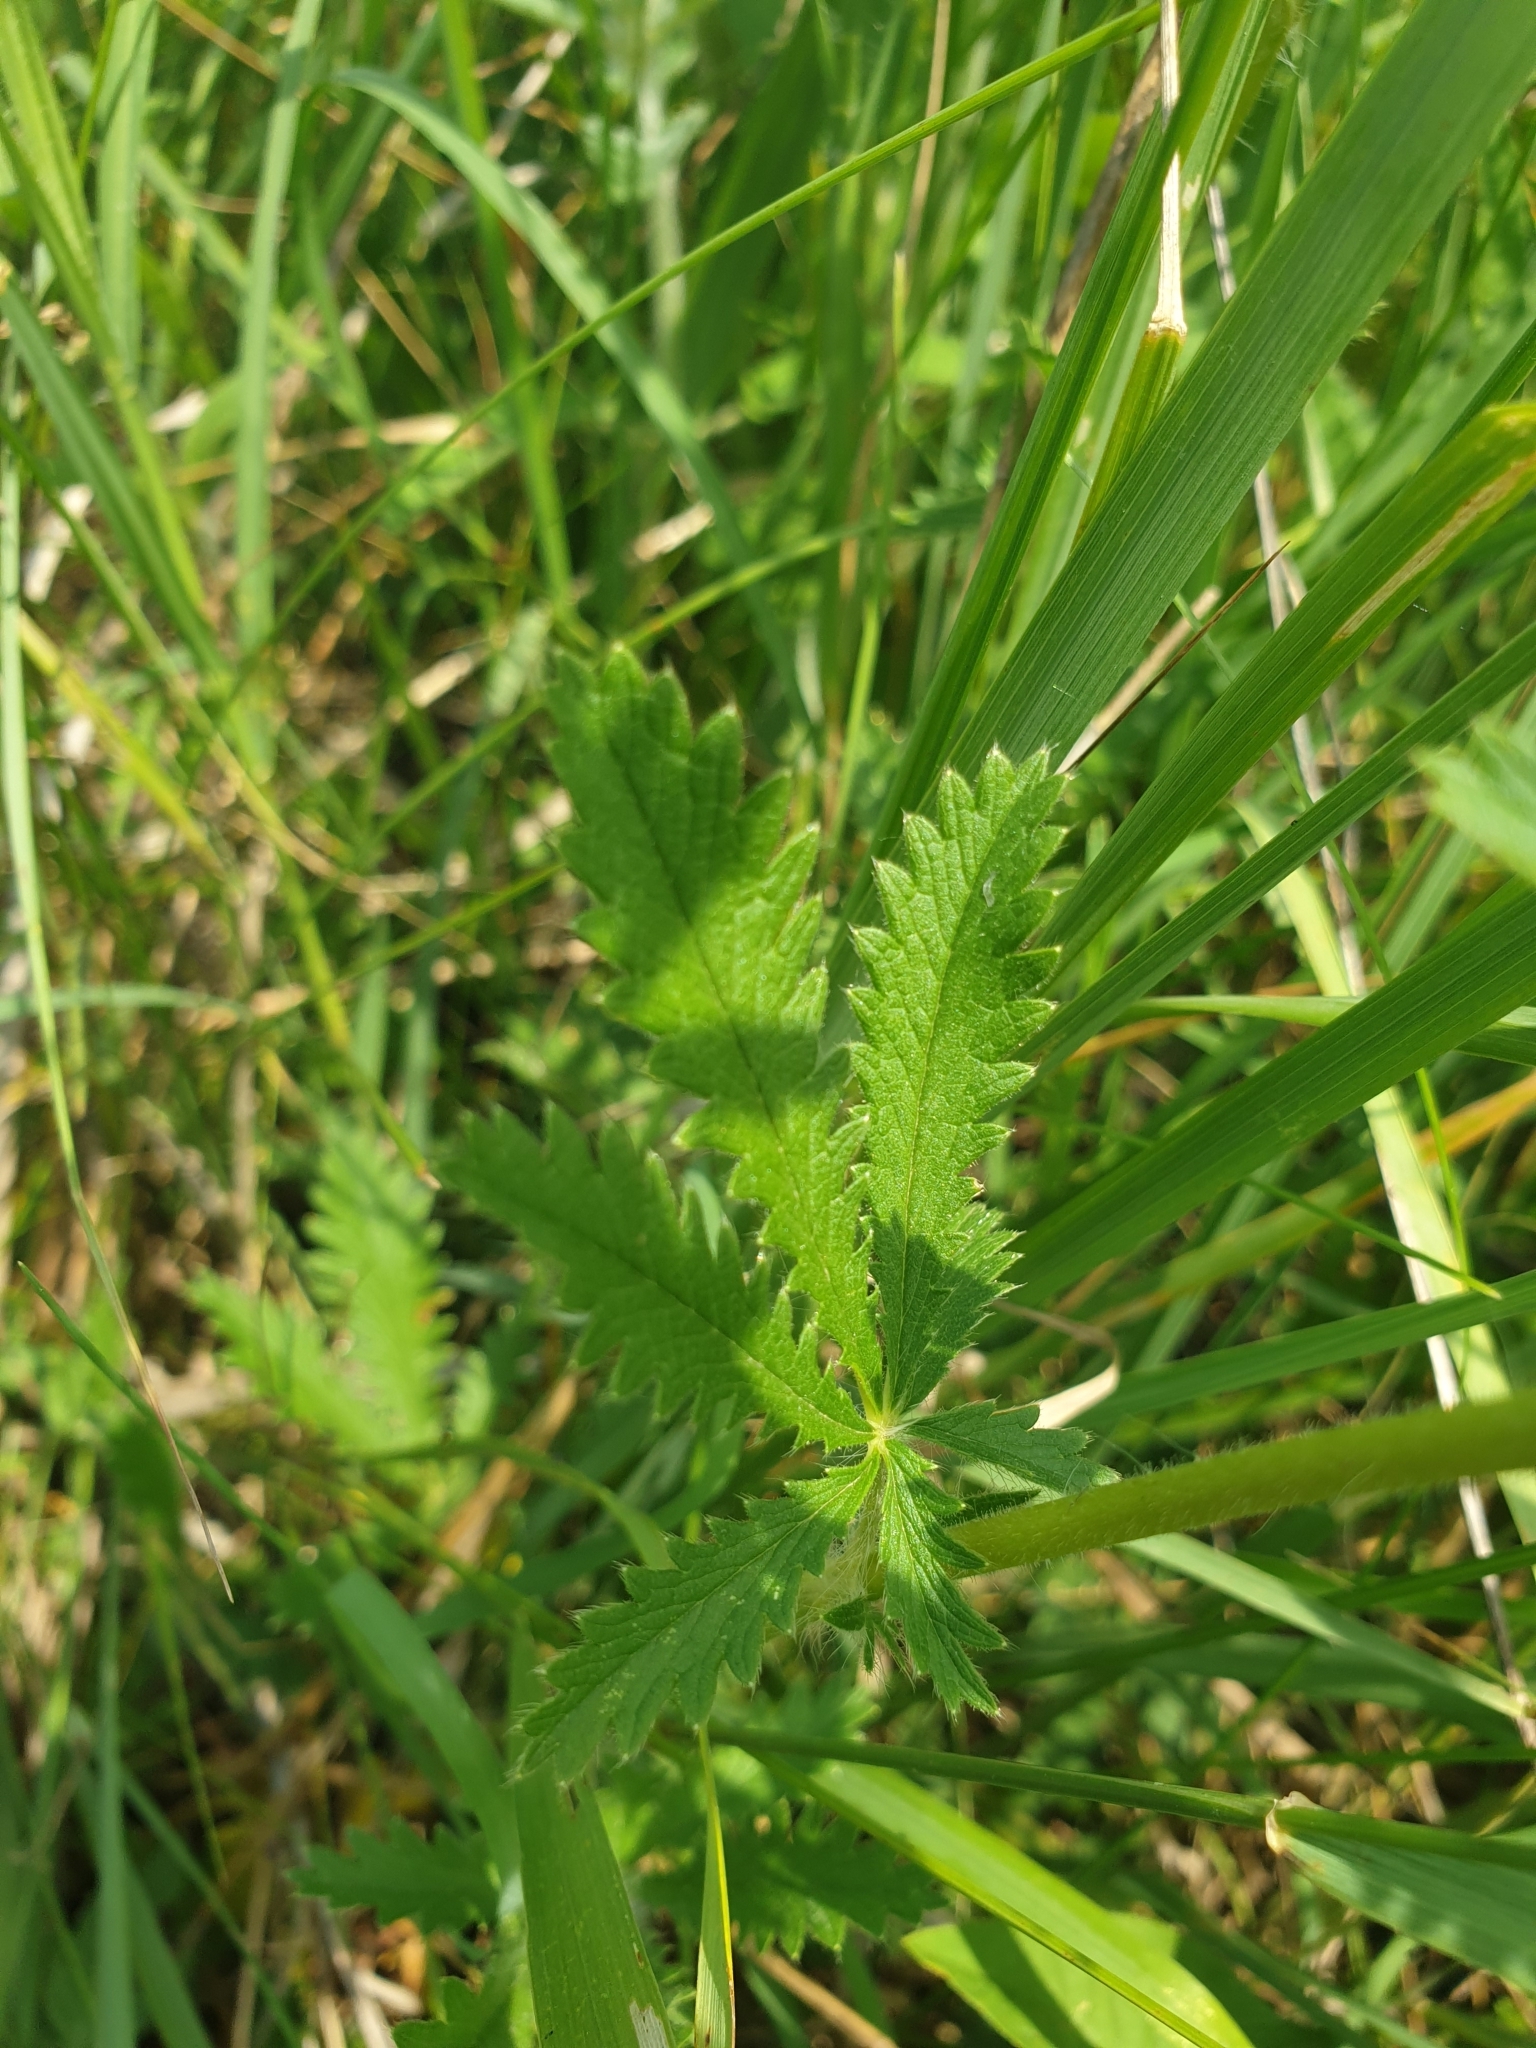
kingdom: Plantae
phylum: Tracheophyta
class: Magnoliopsida
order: Rosales
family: Rosaceae
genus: Potentilla
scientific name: Potentilla recta
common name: Sulphur cinquefoil
